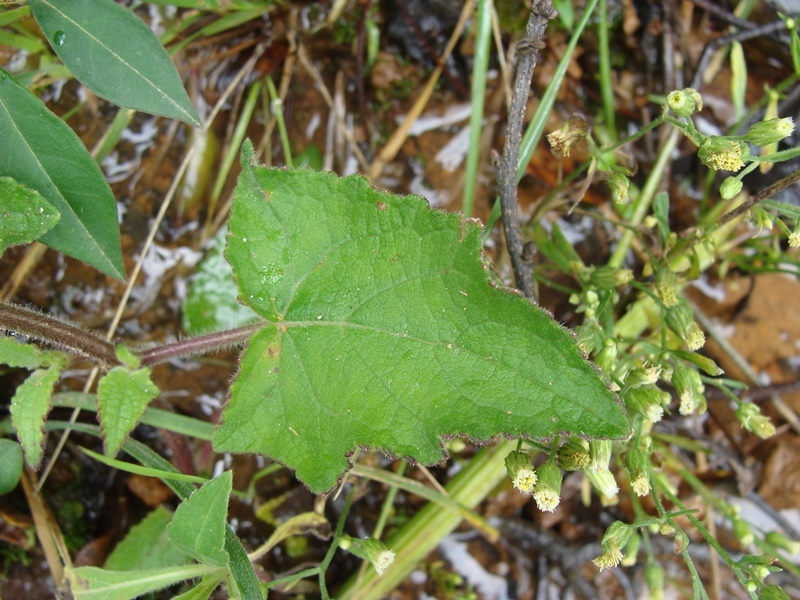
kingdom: Plantae
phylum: Tracheophyta
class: Magnoliopsida
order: Lamiales
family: Lamiaceae
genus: Salvia
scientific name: Salvia patens
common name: Blue sage
